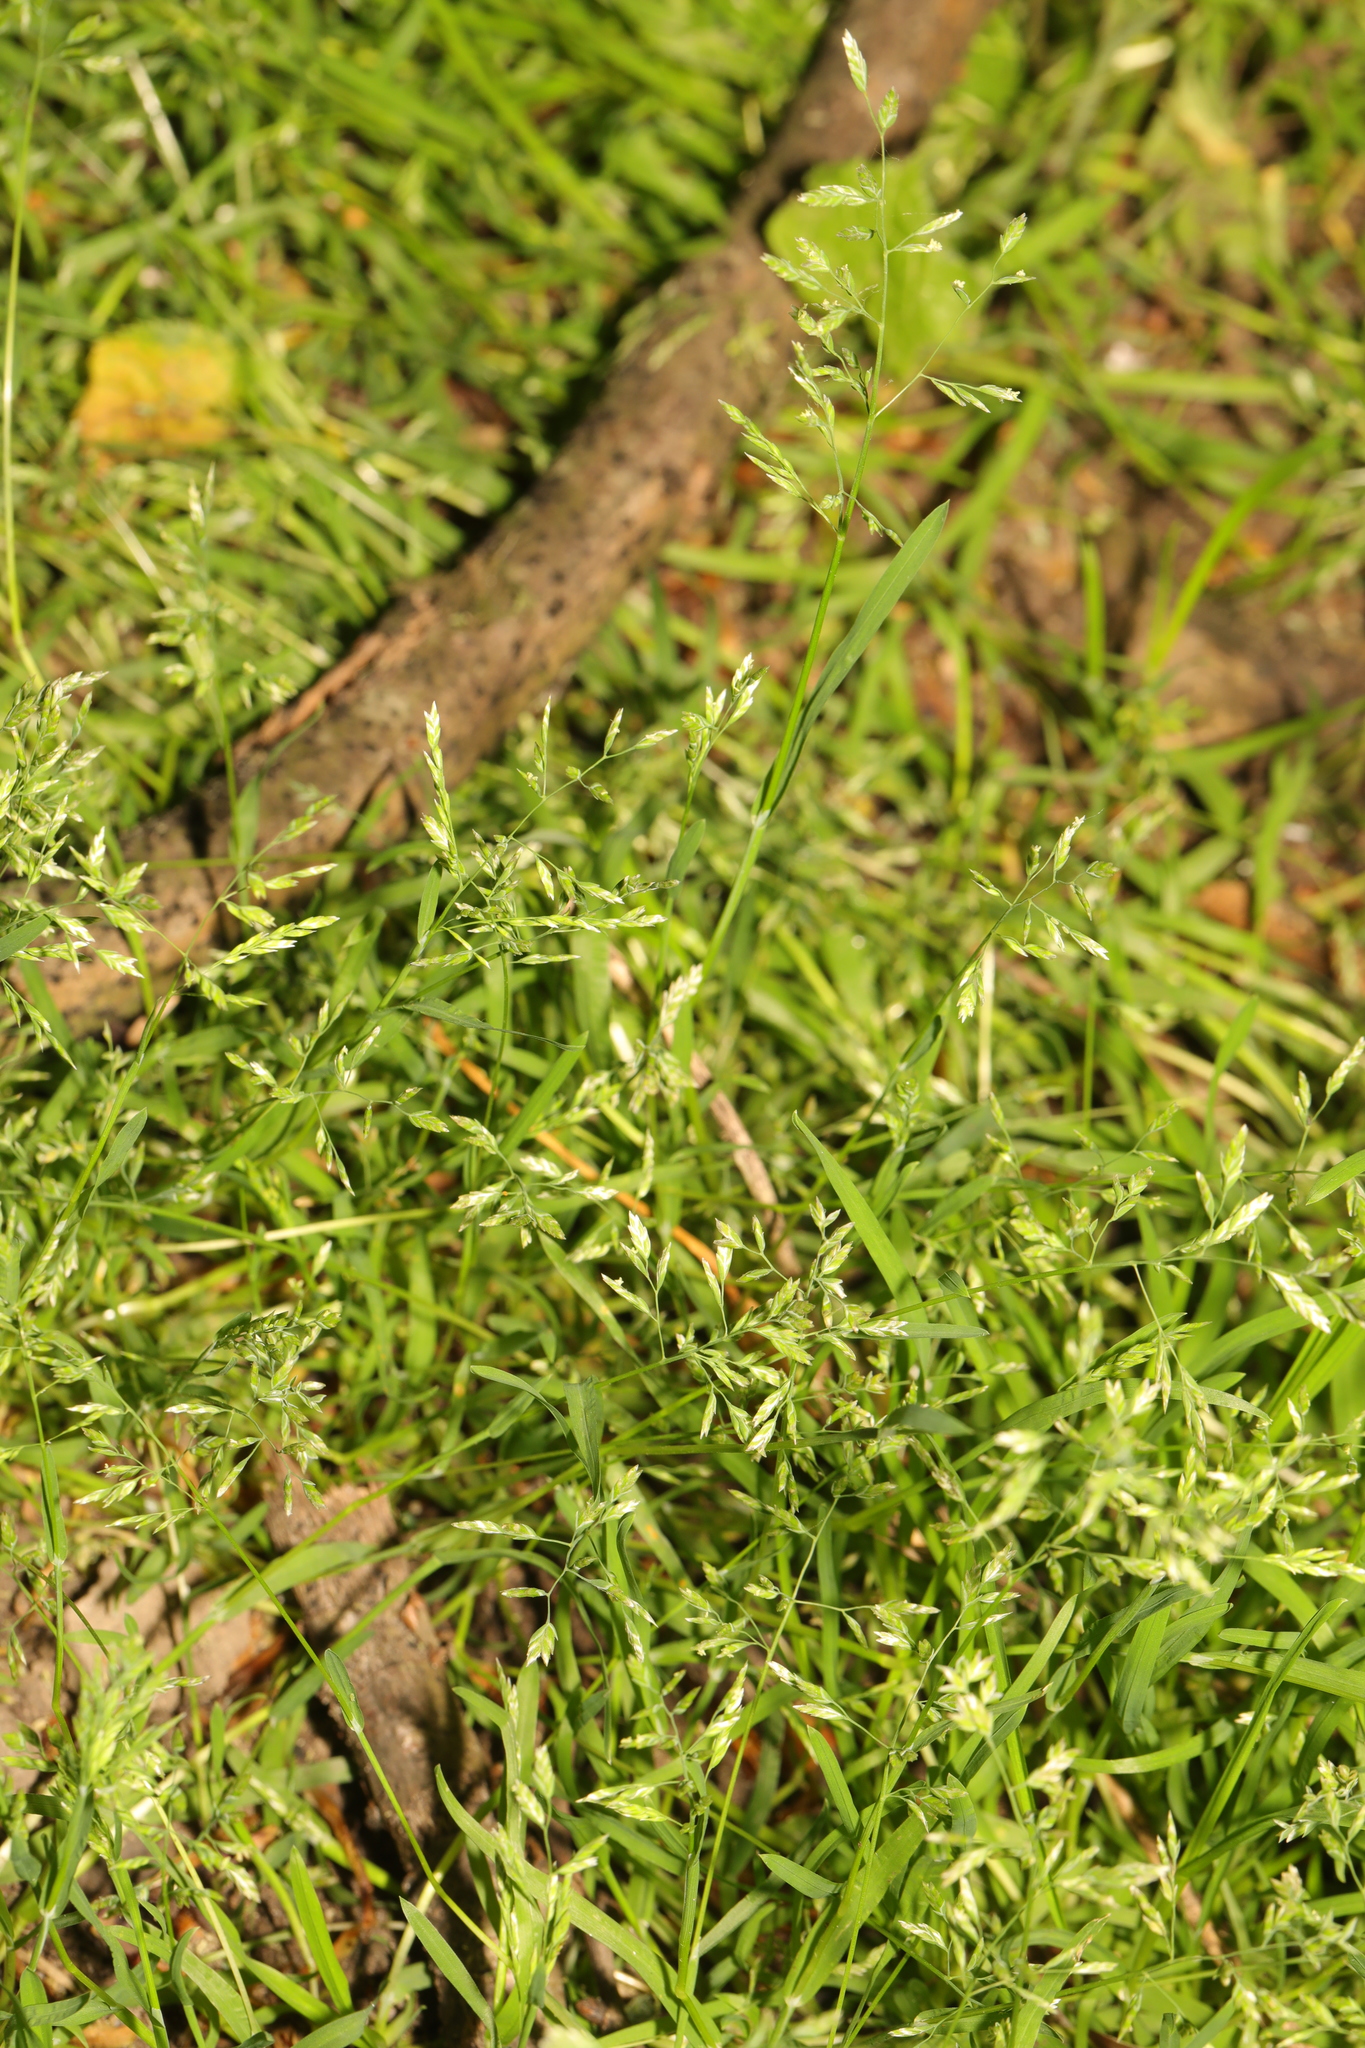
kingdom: Plantae
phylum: Tracheophyta
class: Liliopsida
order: Poales
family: Poaceae
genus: Poa
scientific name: Poa annua
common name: Annual bluegrass
